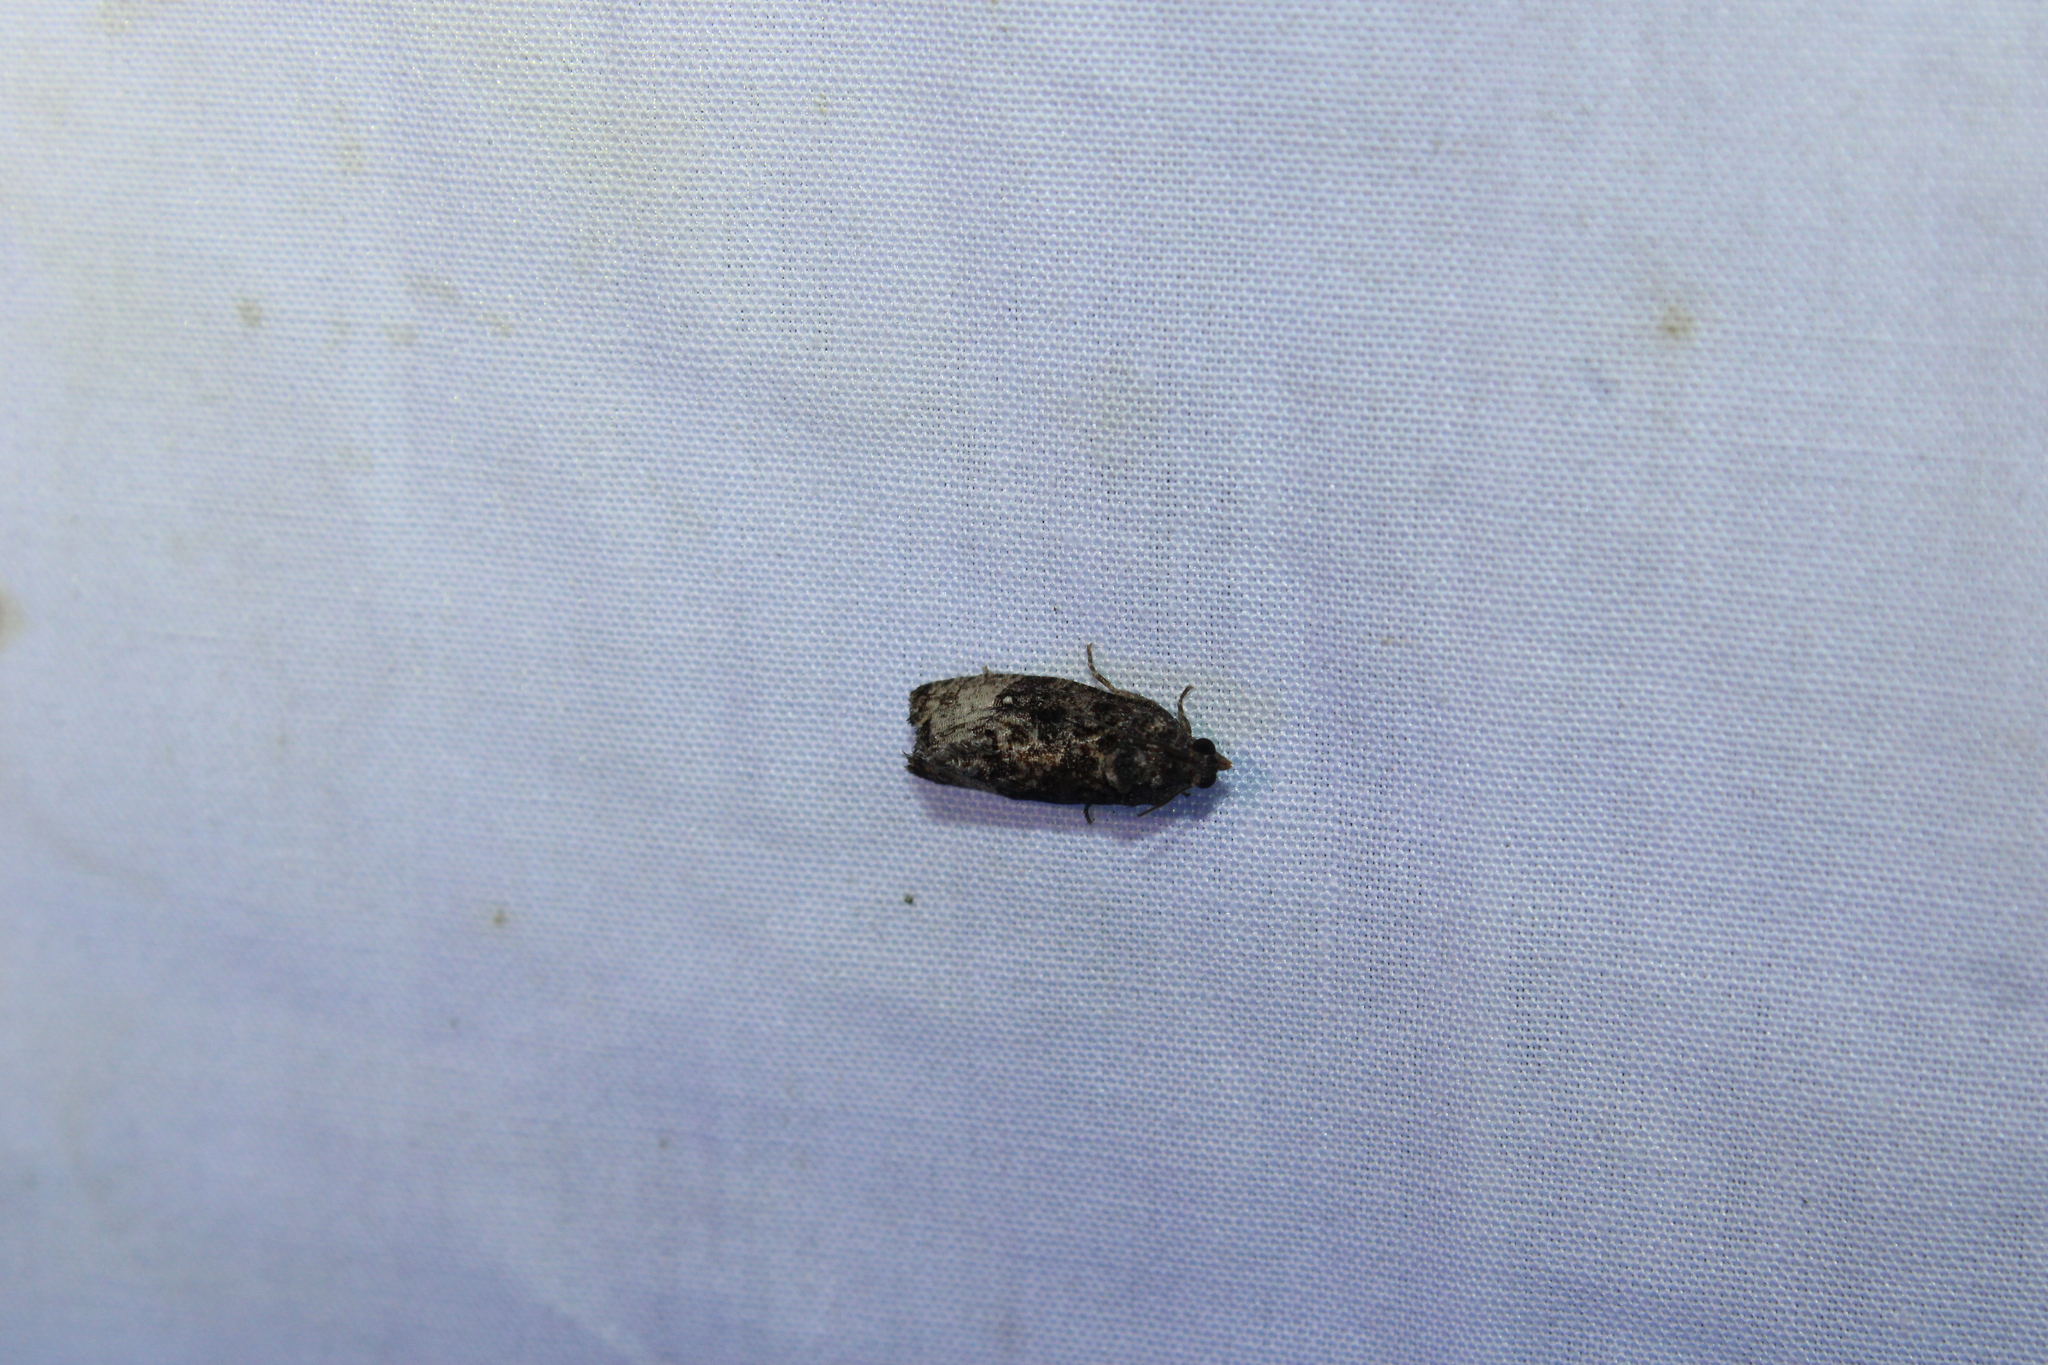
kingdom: Animalia
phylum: Arthropoda
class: Insecta
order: Lepidoptera
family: Tortricidae
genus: Gymnandrosoma
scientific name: Gymnandrosoma punctidiscanum
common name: Dotted ecdytolopha moth
